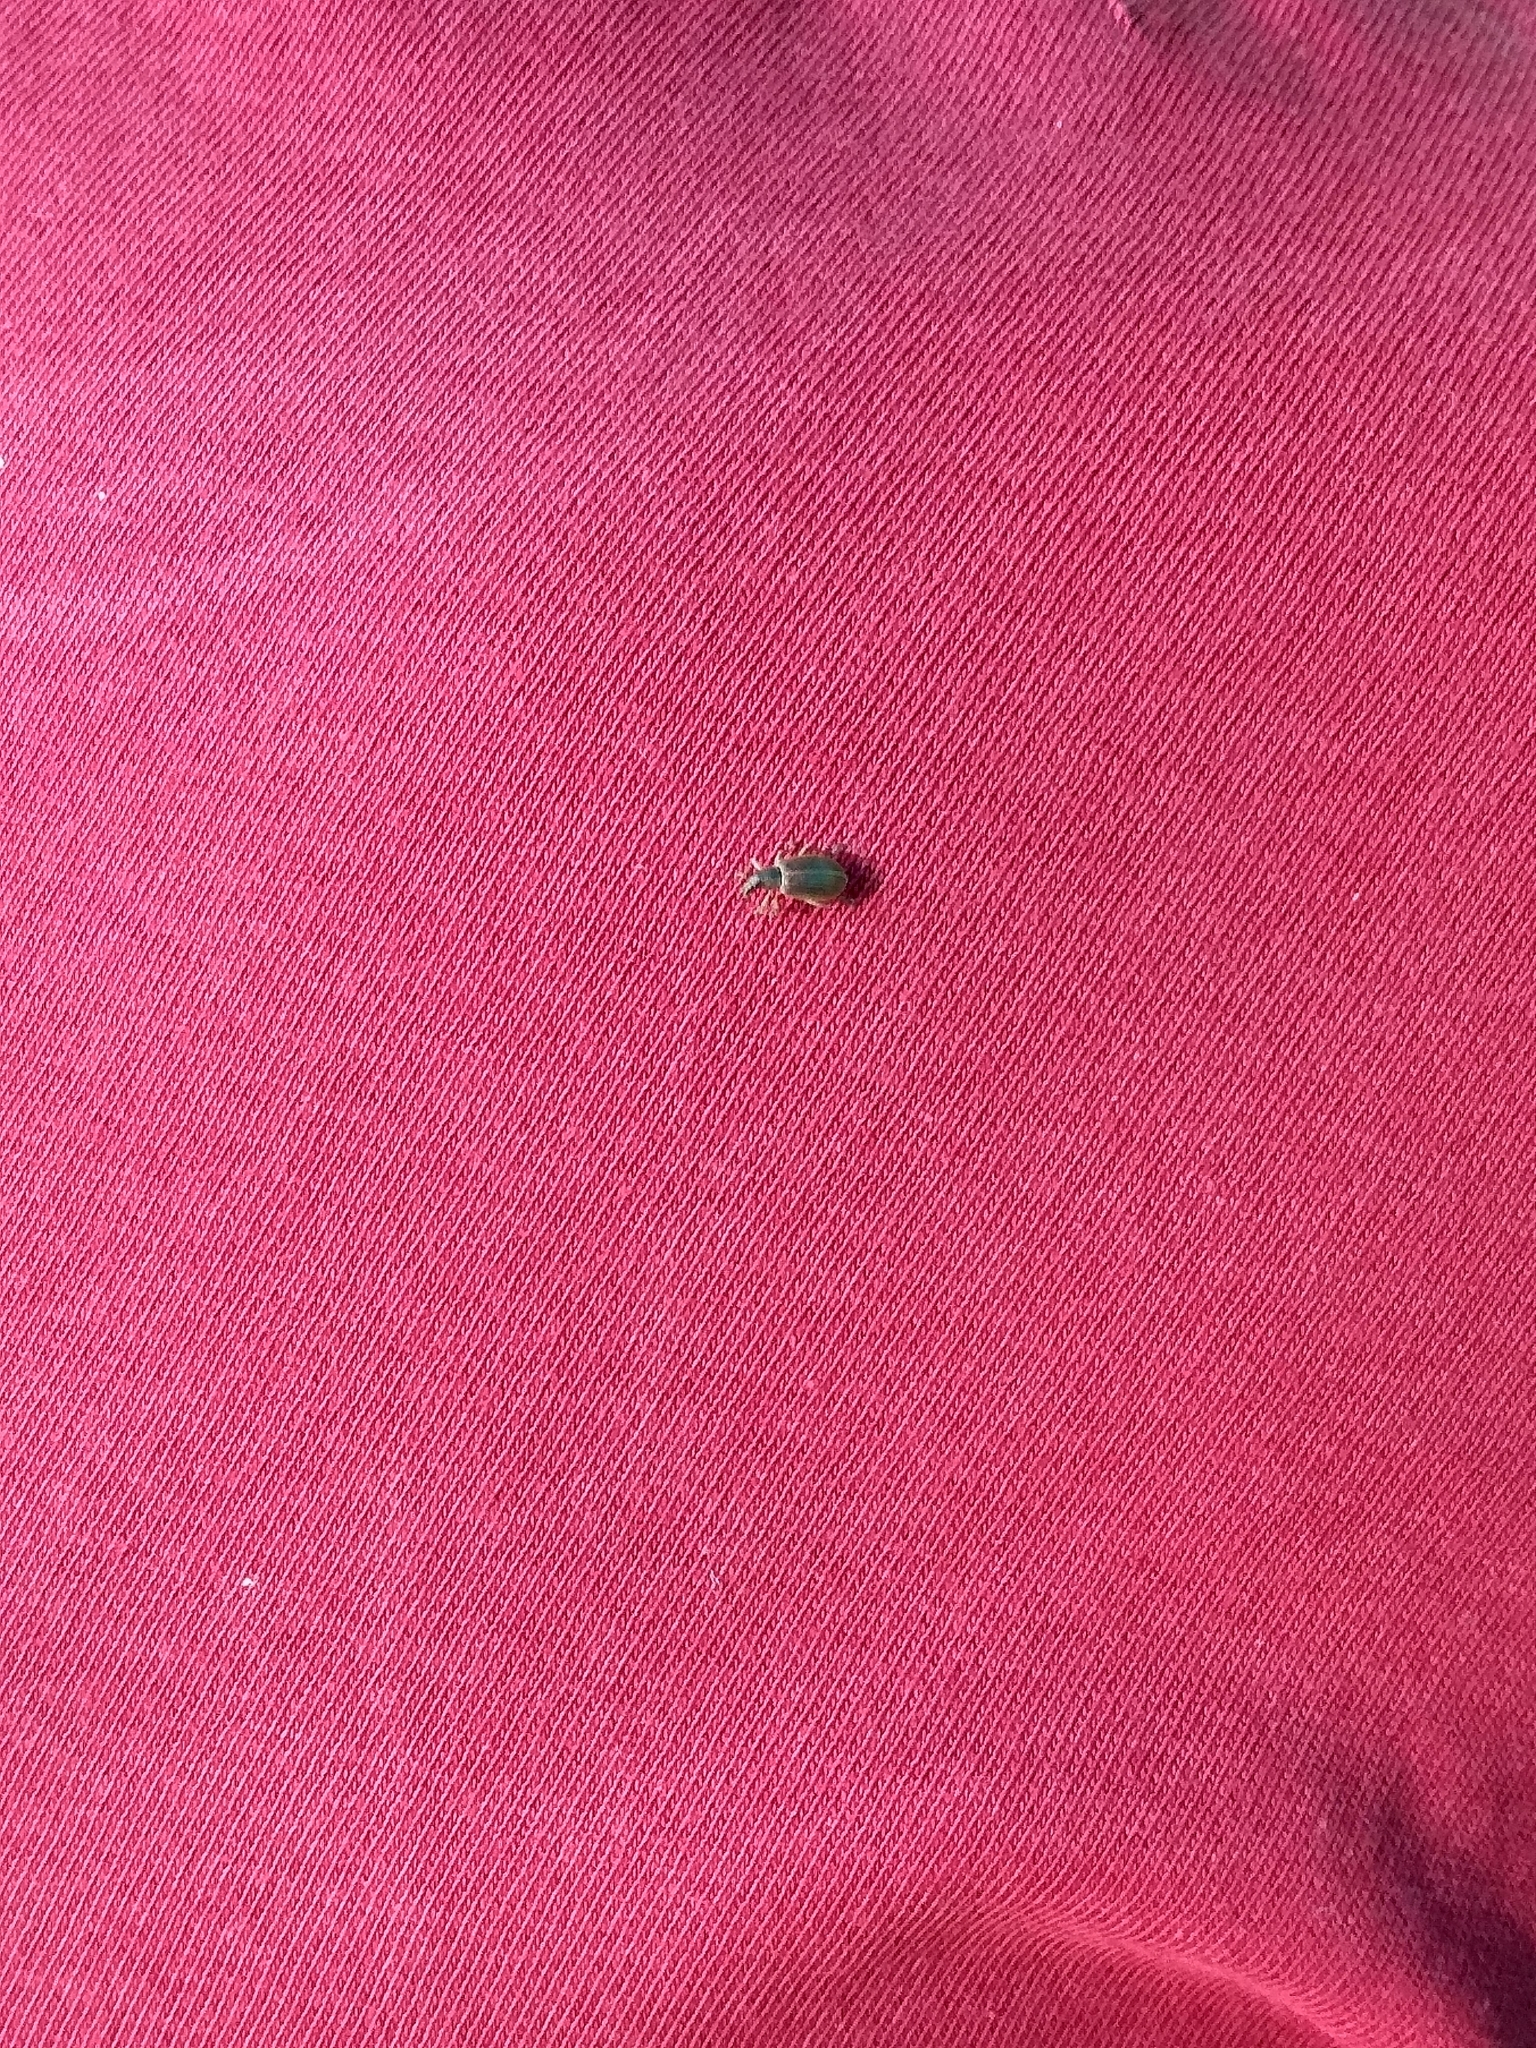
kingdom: Animalia
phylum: Arthropoda
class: Insecta
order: Coleoptera
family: Curculionidae
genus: Polydrusus
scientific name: Polydrusus mollis
